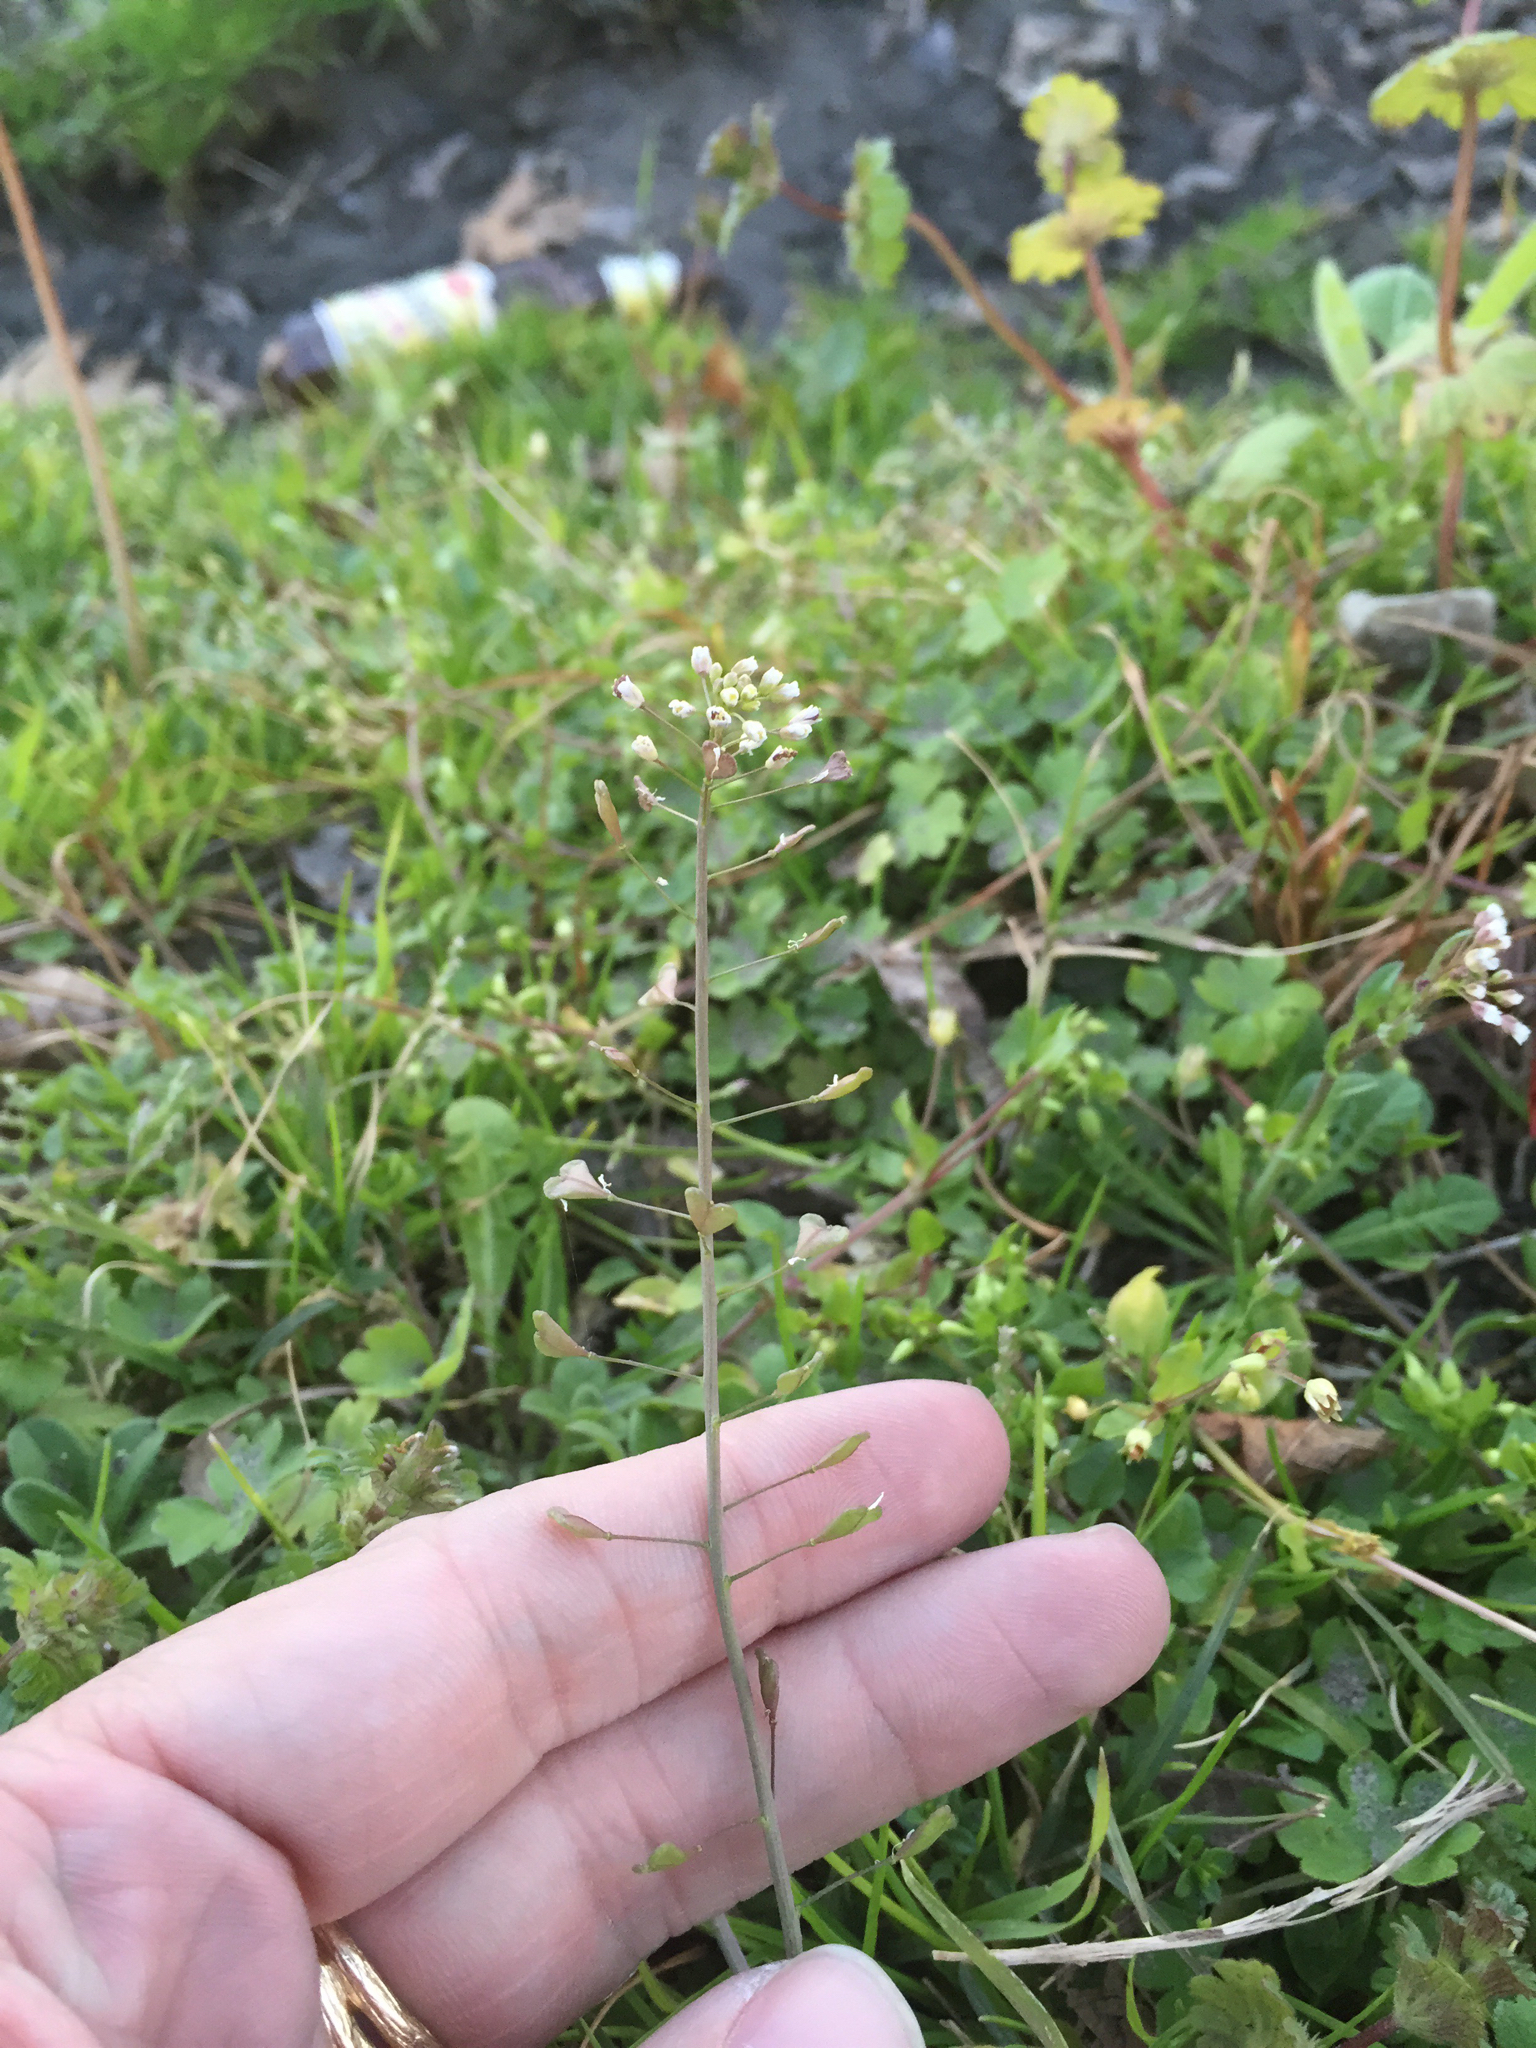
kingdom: Plantae
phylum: Tracheophyta
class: Magnoliopsida
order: Brassicales
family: Brassicaceae
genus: Capsella
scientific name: Capsella bursa-pastoris
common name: Shepherd's purse
